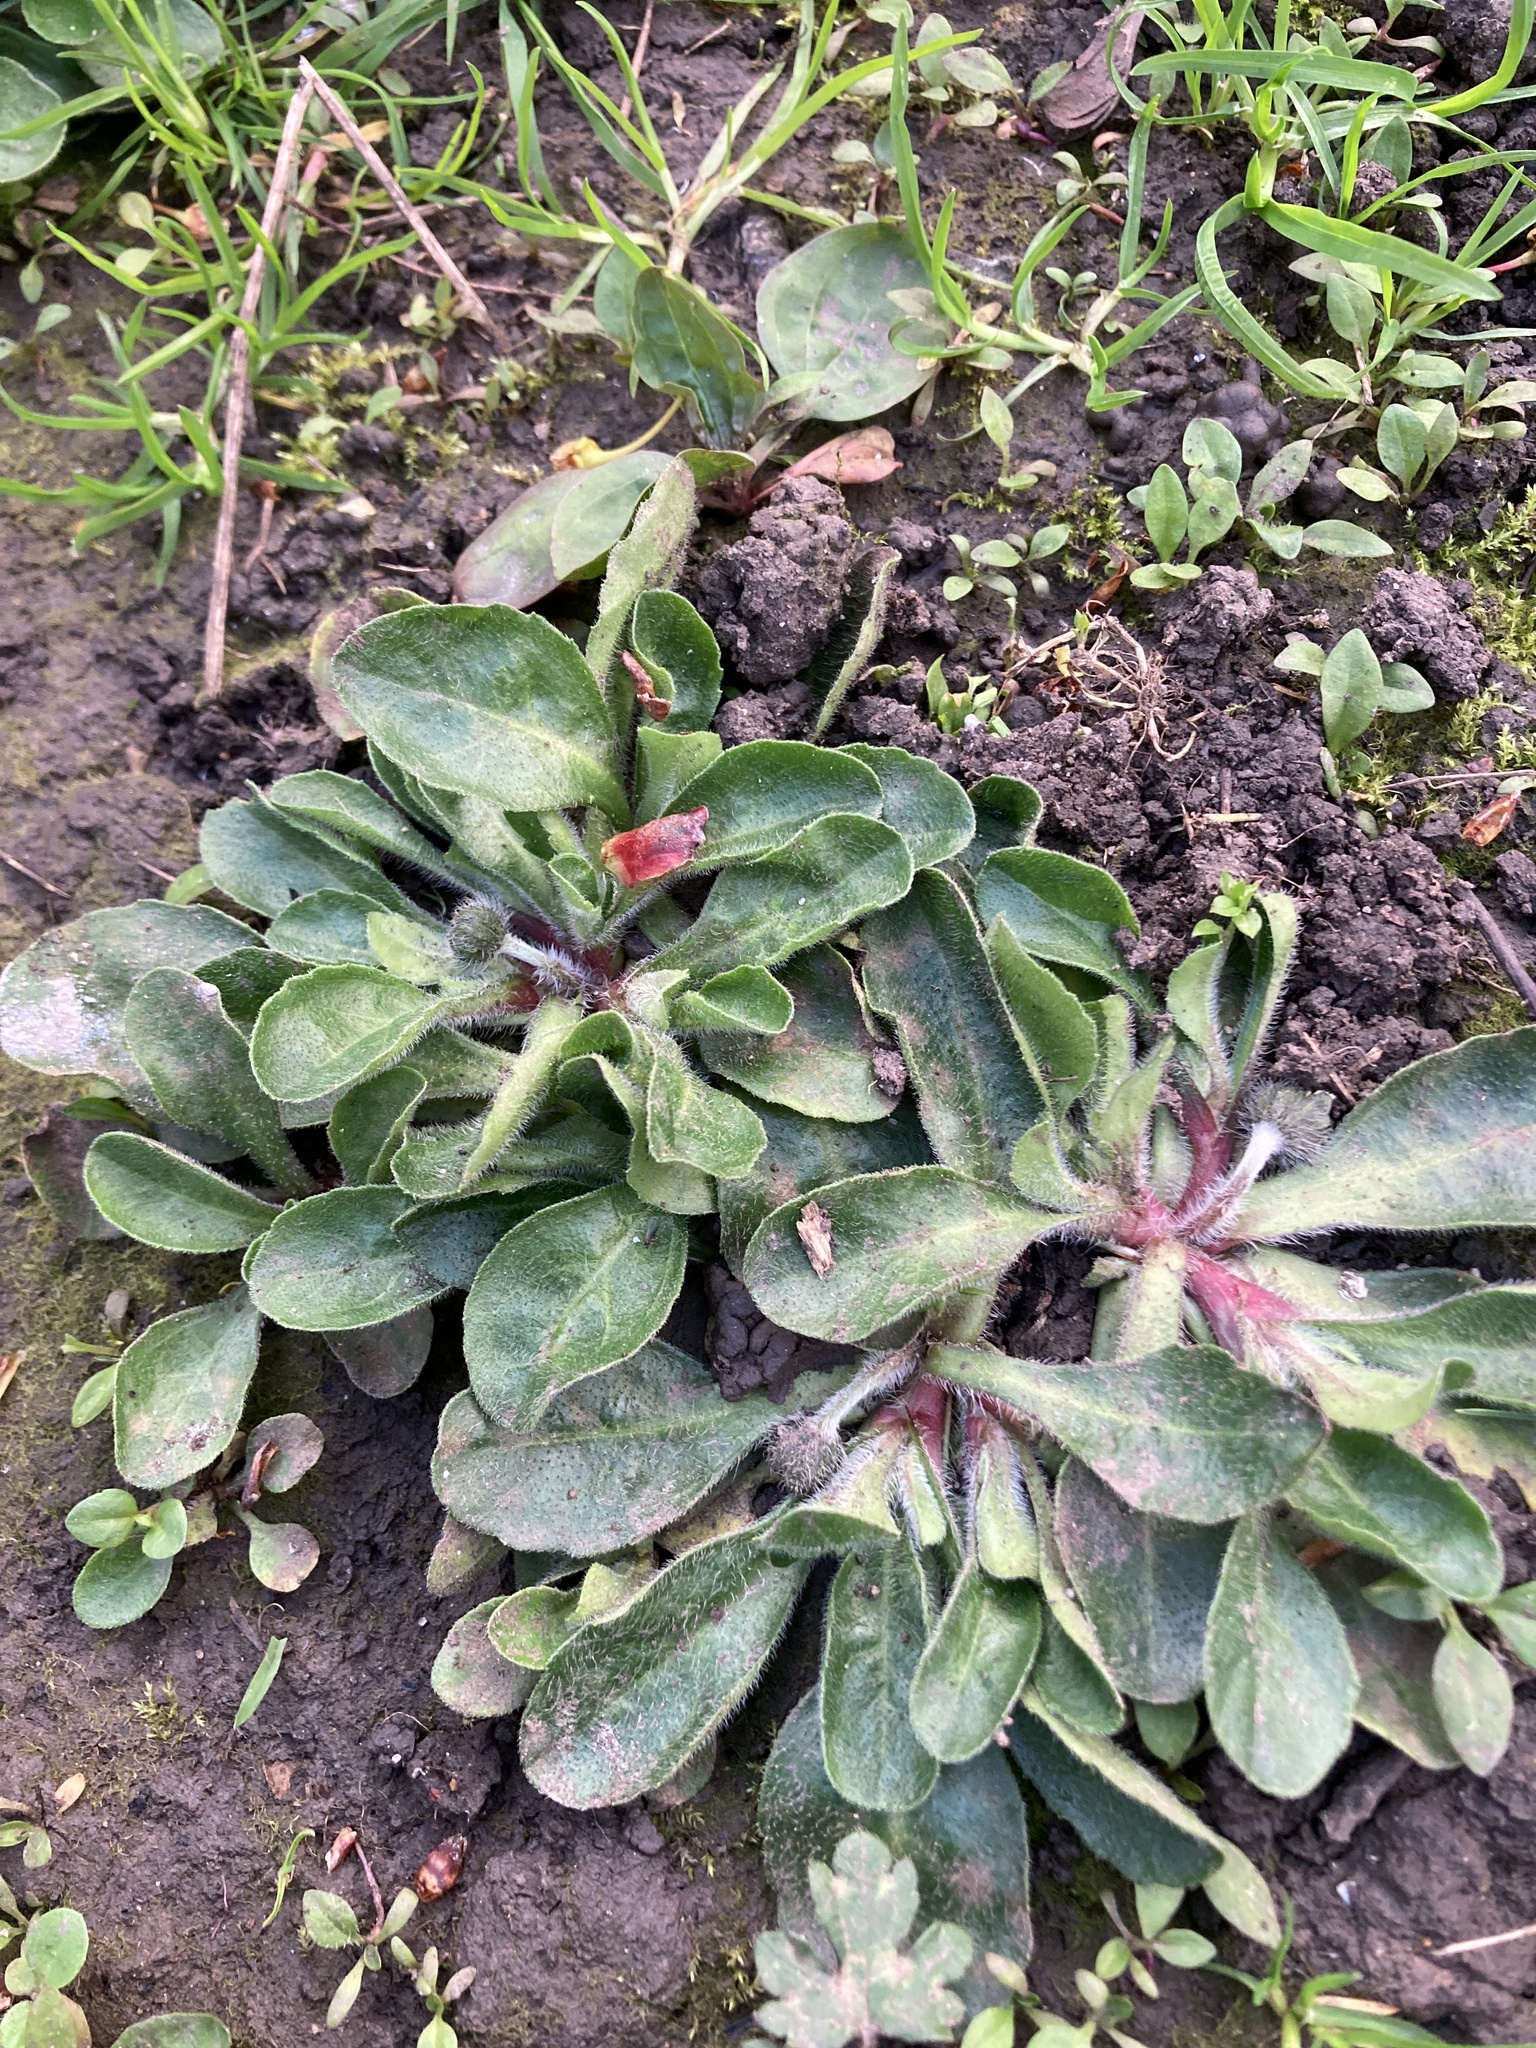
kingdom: Plantae
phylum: Tracheophyta
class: Magnoliopsida
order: Asterales
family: Asteraceae
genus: Bellis
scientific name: Bellis perennis
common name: Lawndaisy
